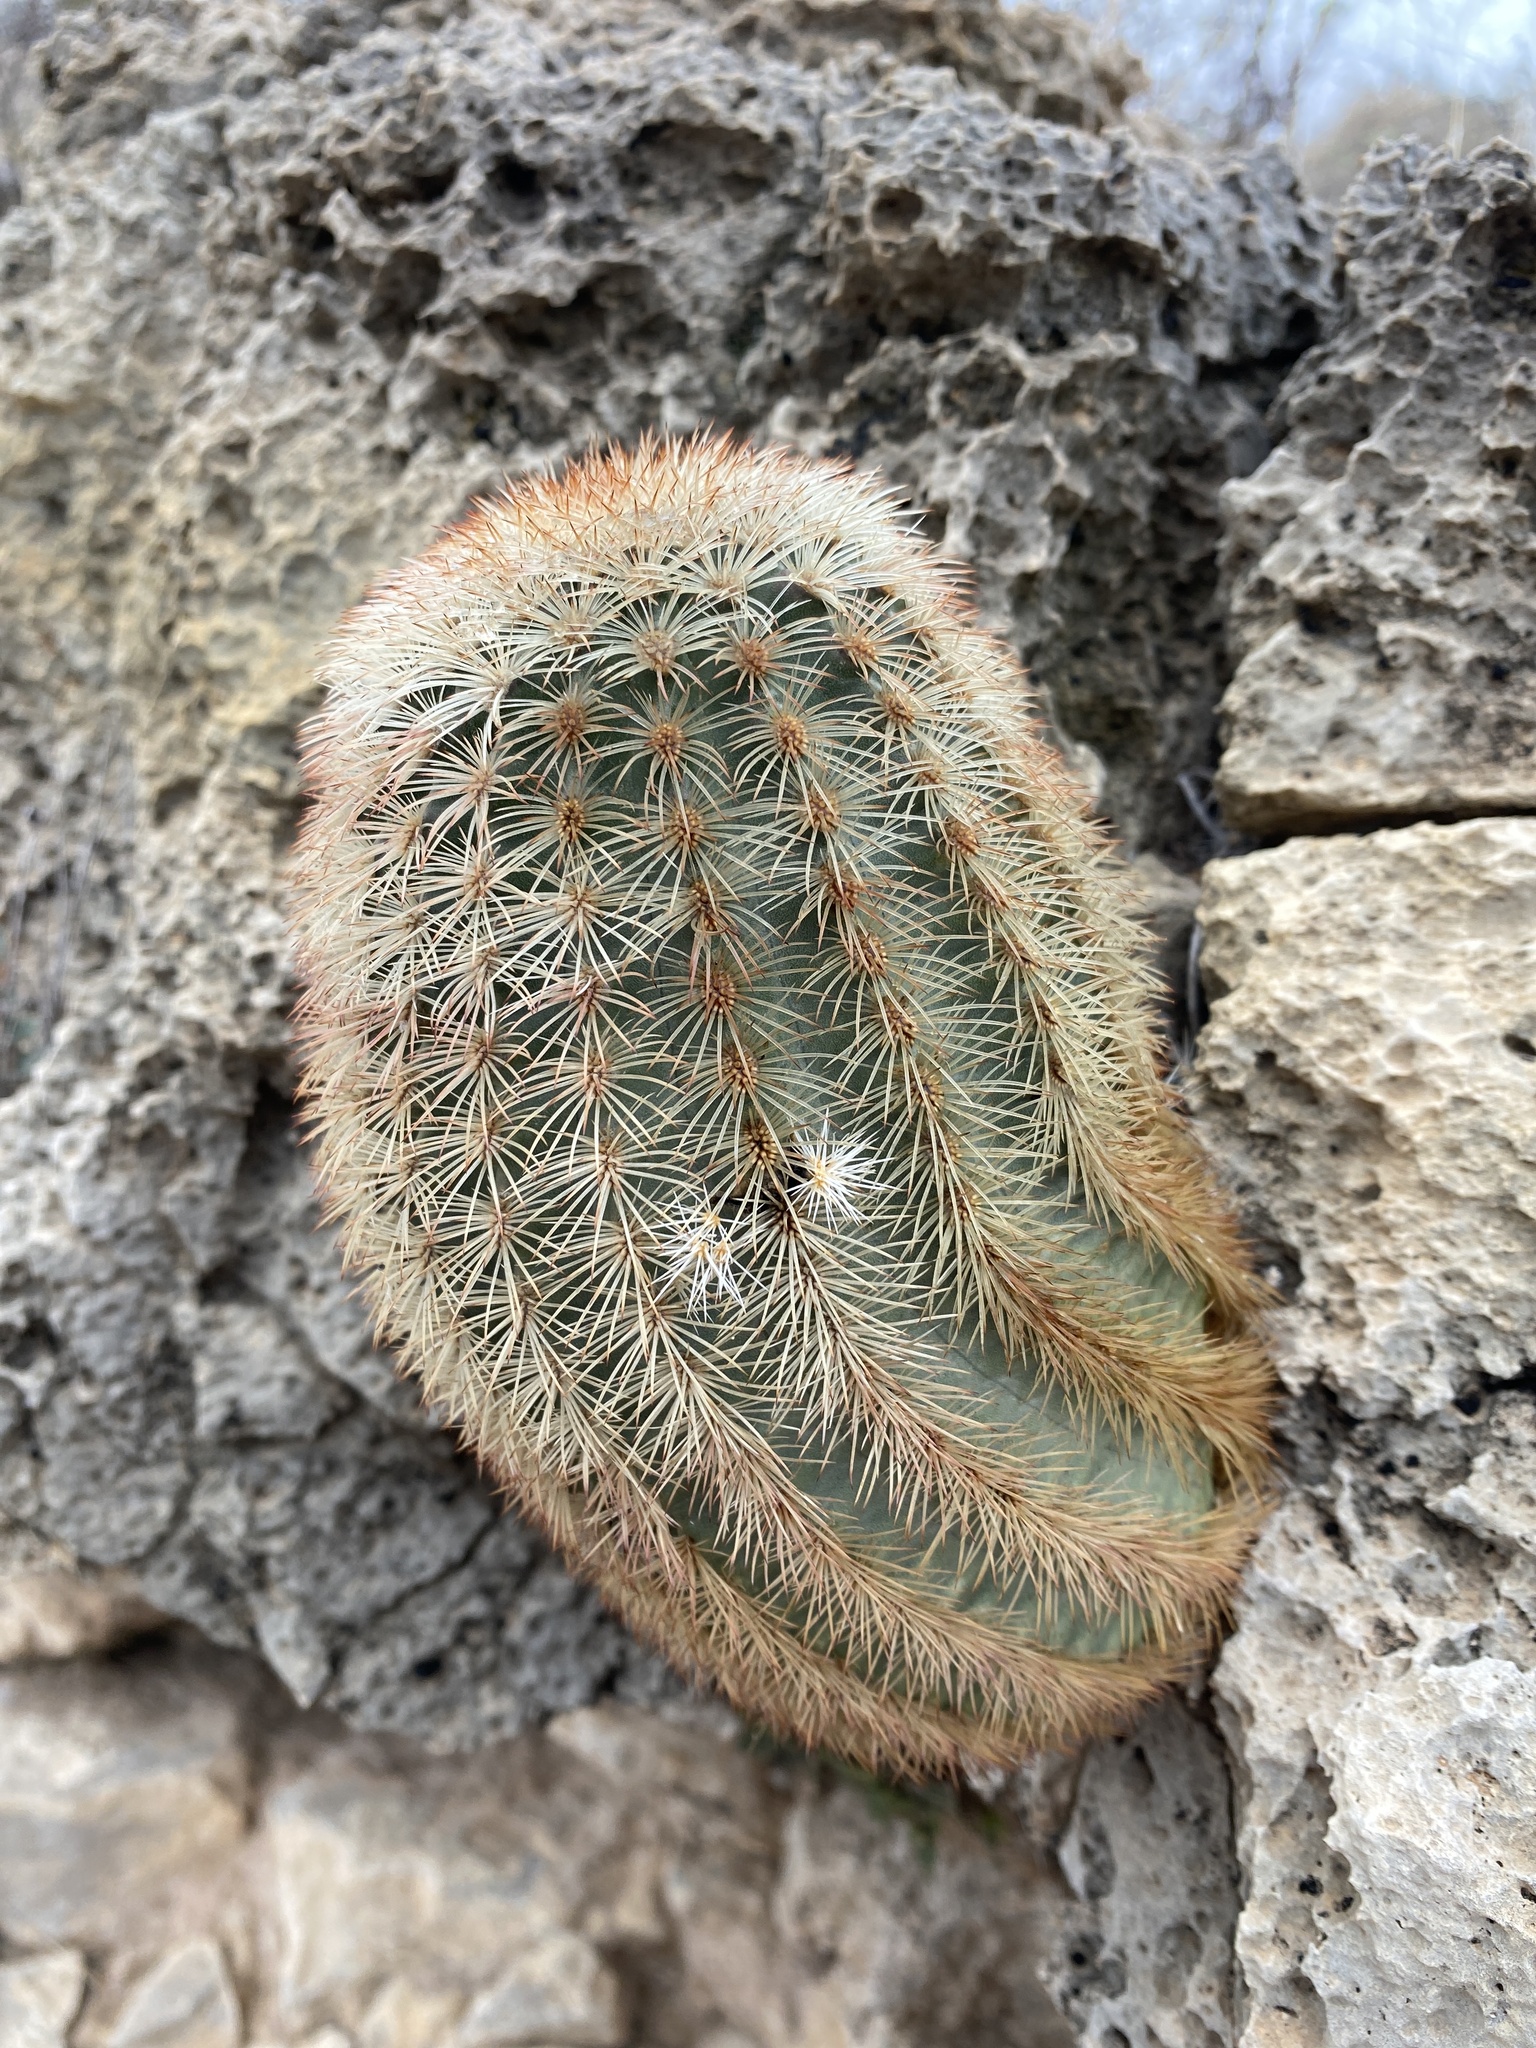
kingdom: Plantae
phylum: Tracheophyta
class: Magnoliopsida
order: Caryophyllales
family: Cactaceae
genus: Echinocereus
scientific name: Echinocereus dasyacanthus
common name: Spiny hedgehog cactus
